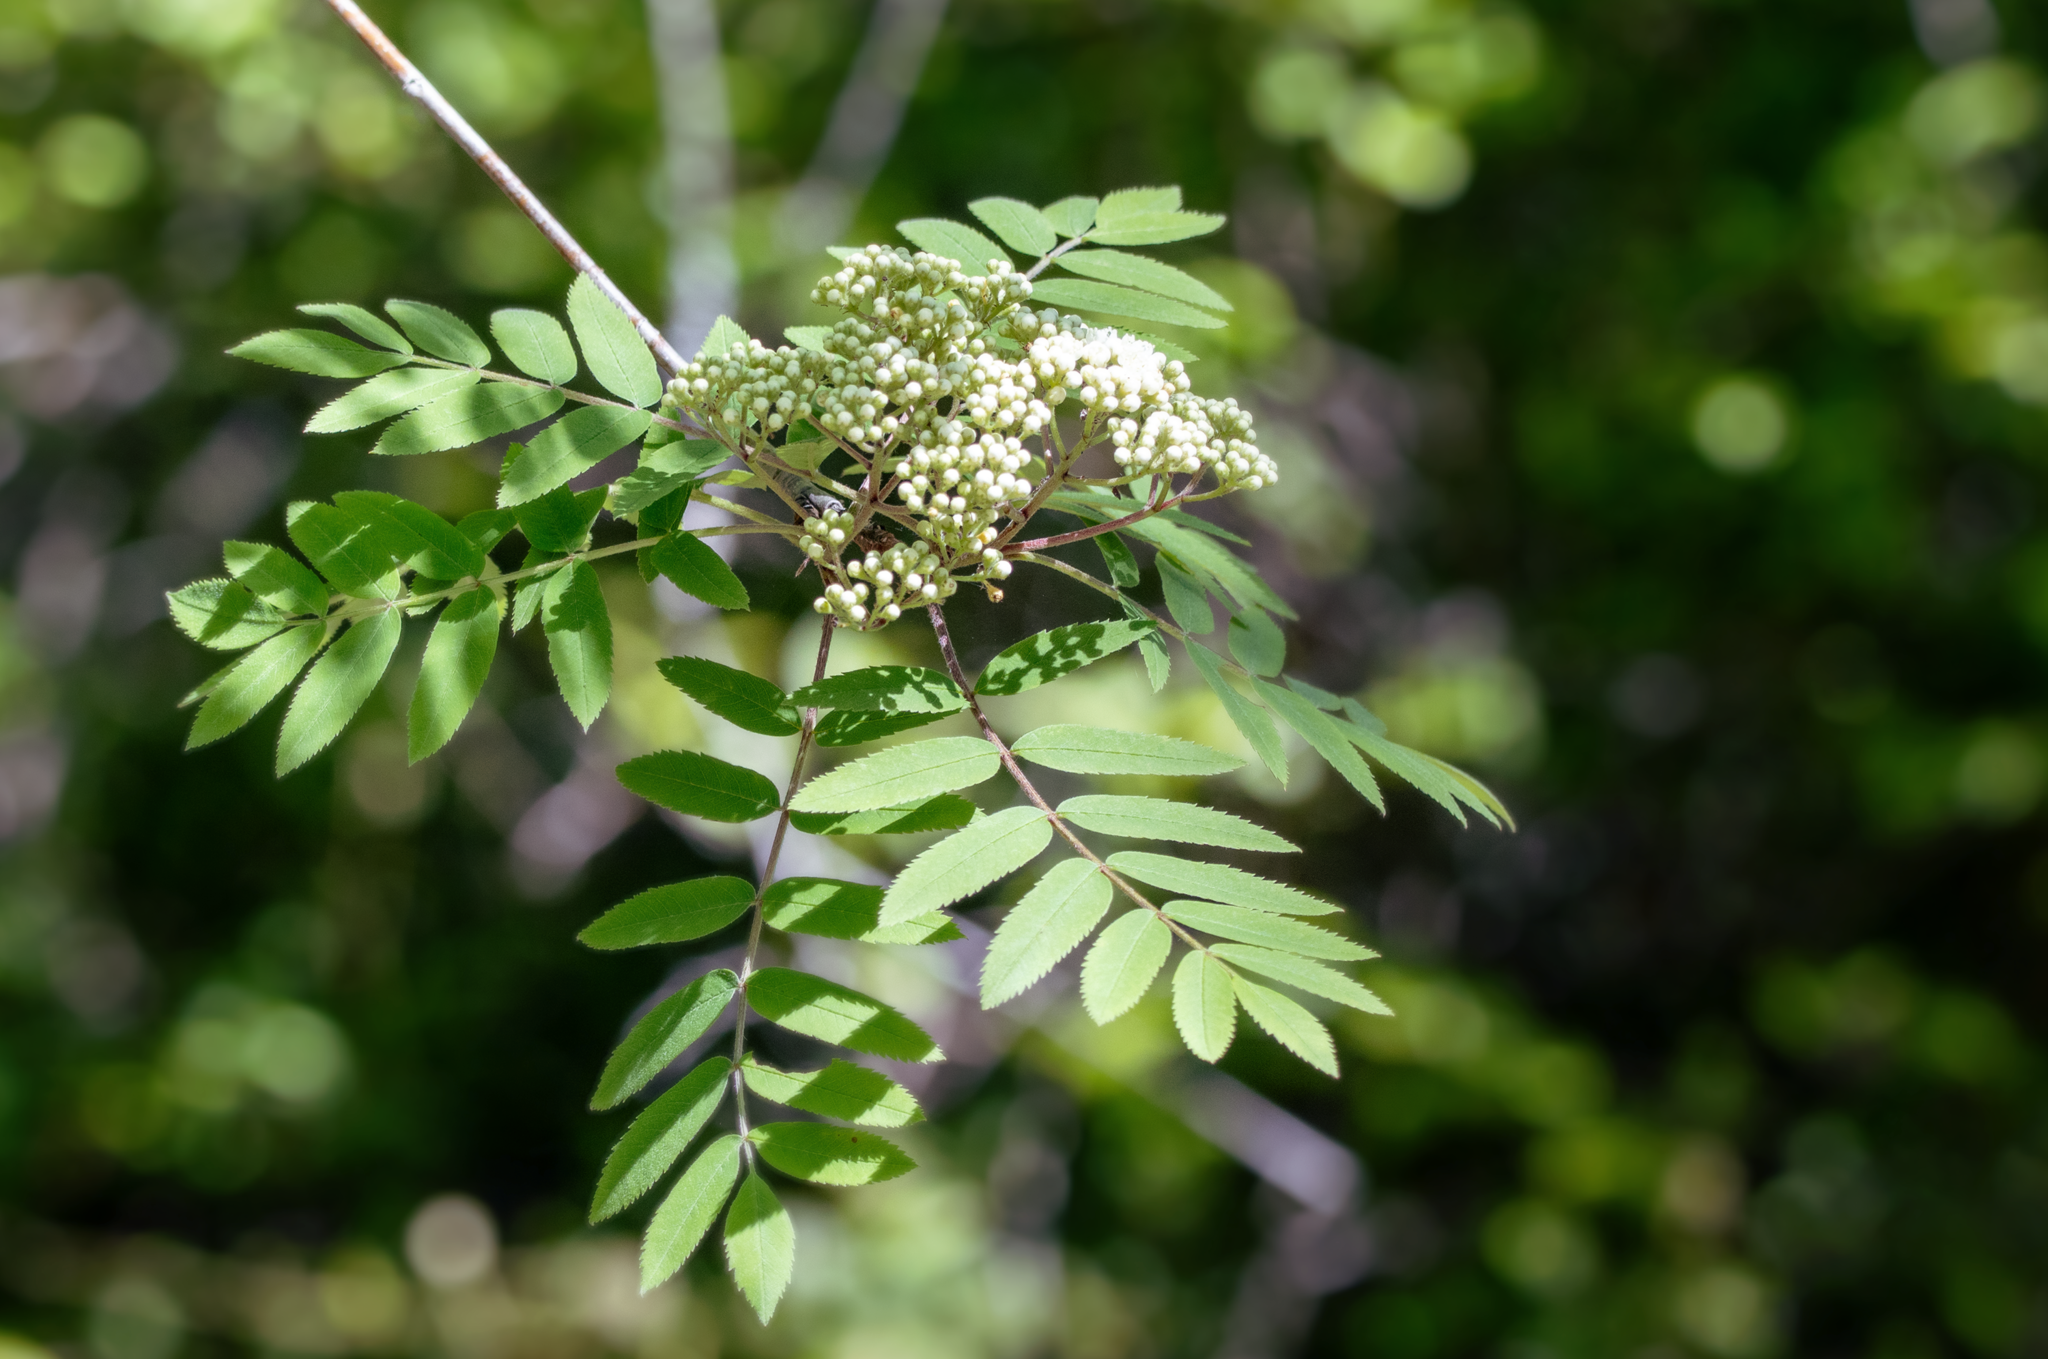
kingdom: Plantae
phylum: Tracheophyta
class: Magnoliopsida
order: Rosales
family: Rosaceae
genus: Sorbus
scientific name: Sorbus aucuparia
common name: Rowan
